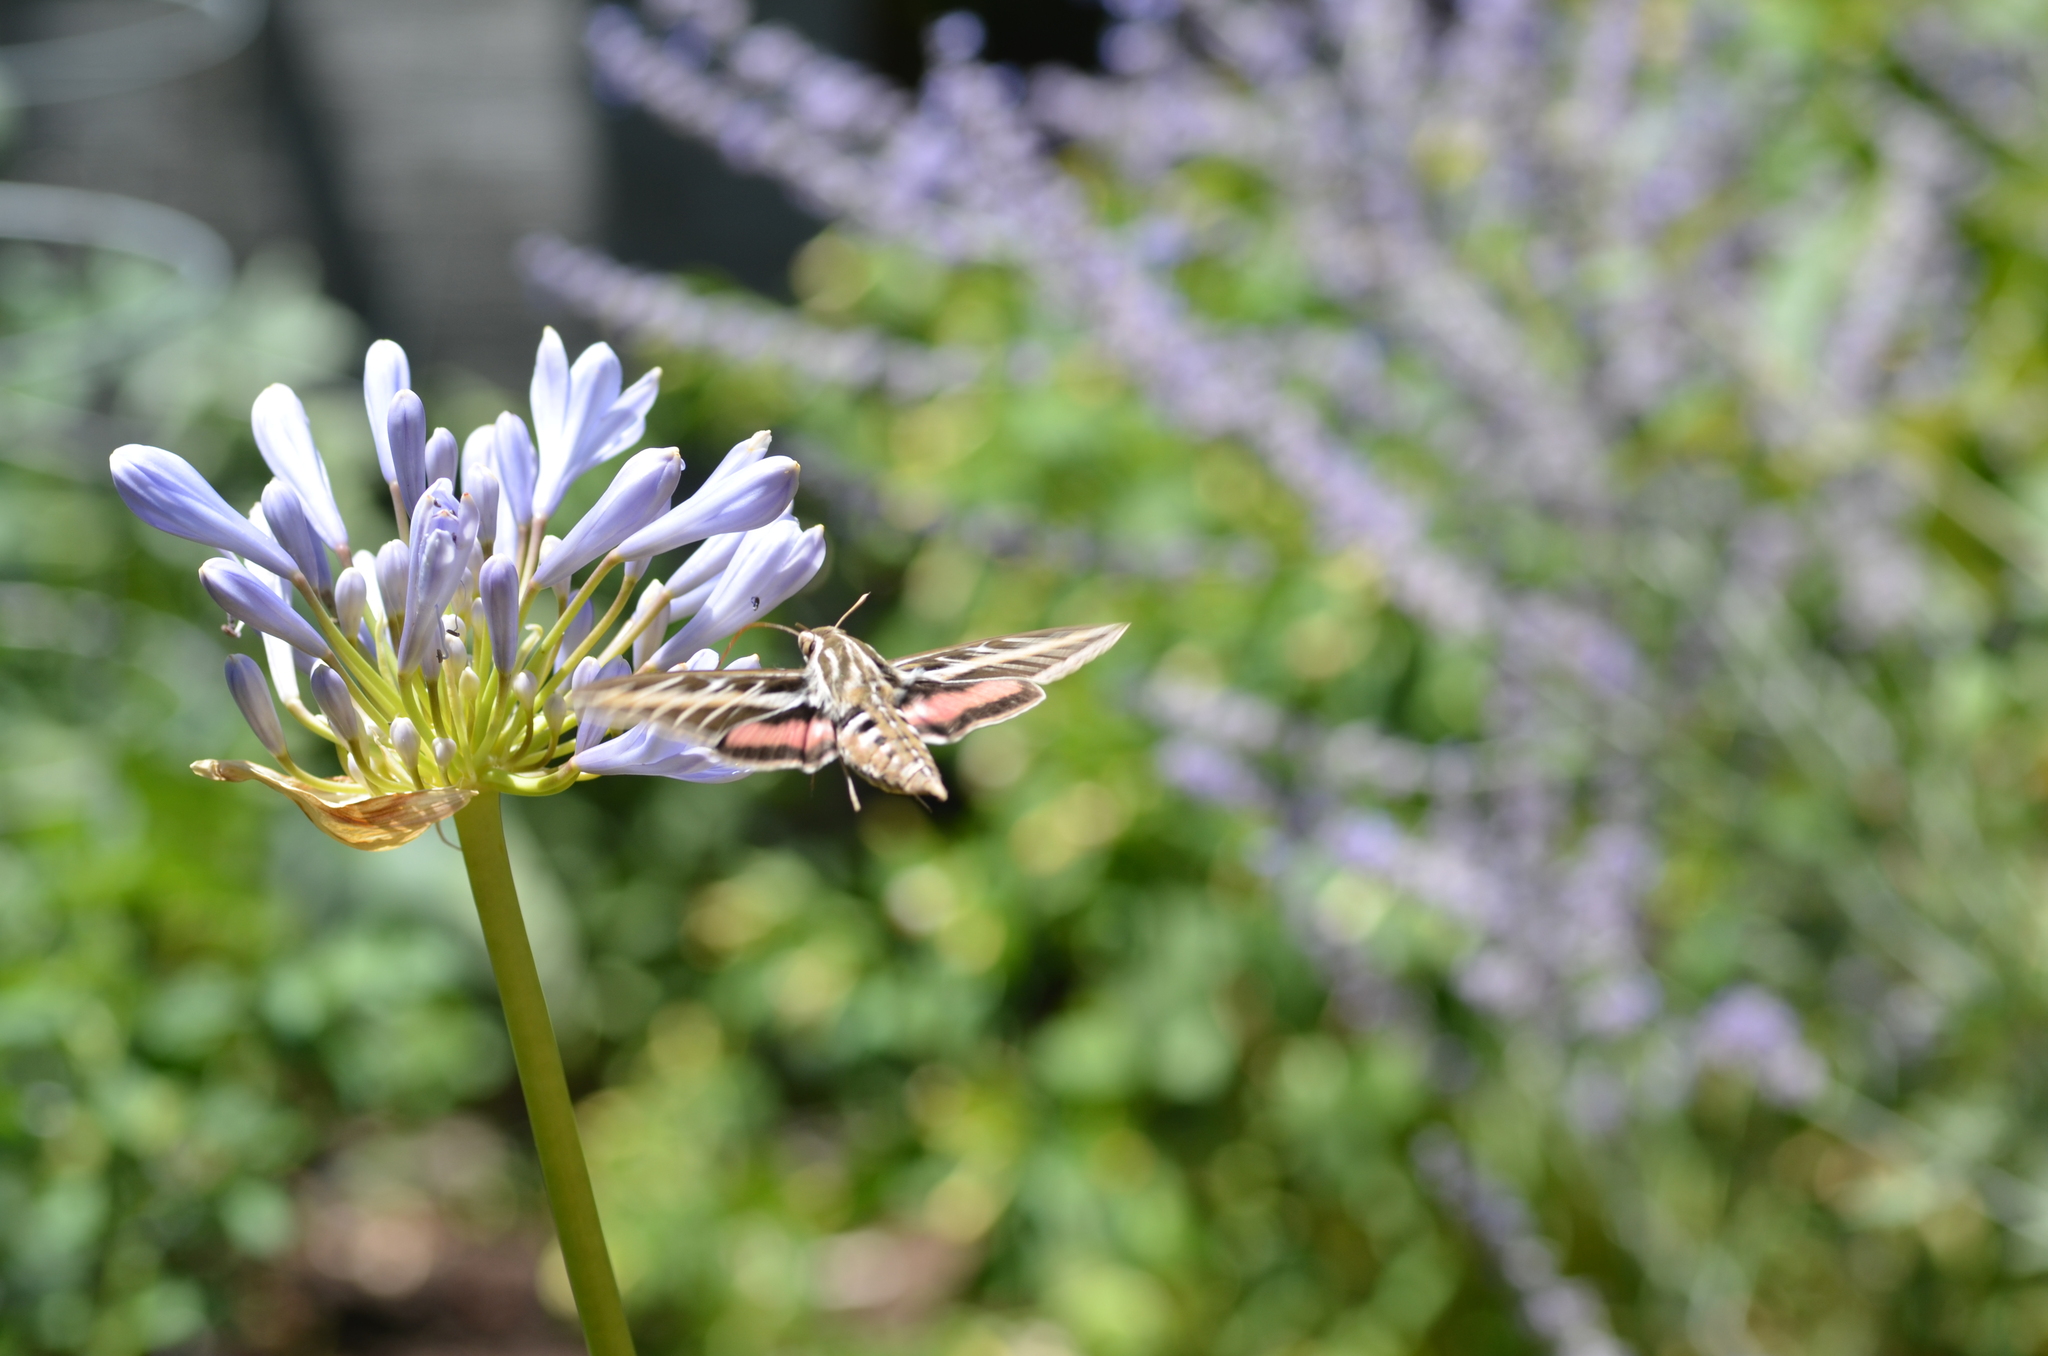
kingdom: Animalia
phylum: Arthropoda
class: Insecta
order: Lepidoptera
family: Sphingidae
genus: Hyles
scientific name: Hyles lineata
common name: White-lined sphinx
